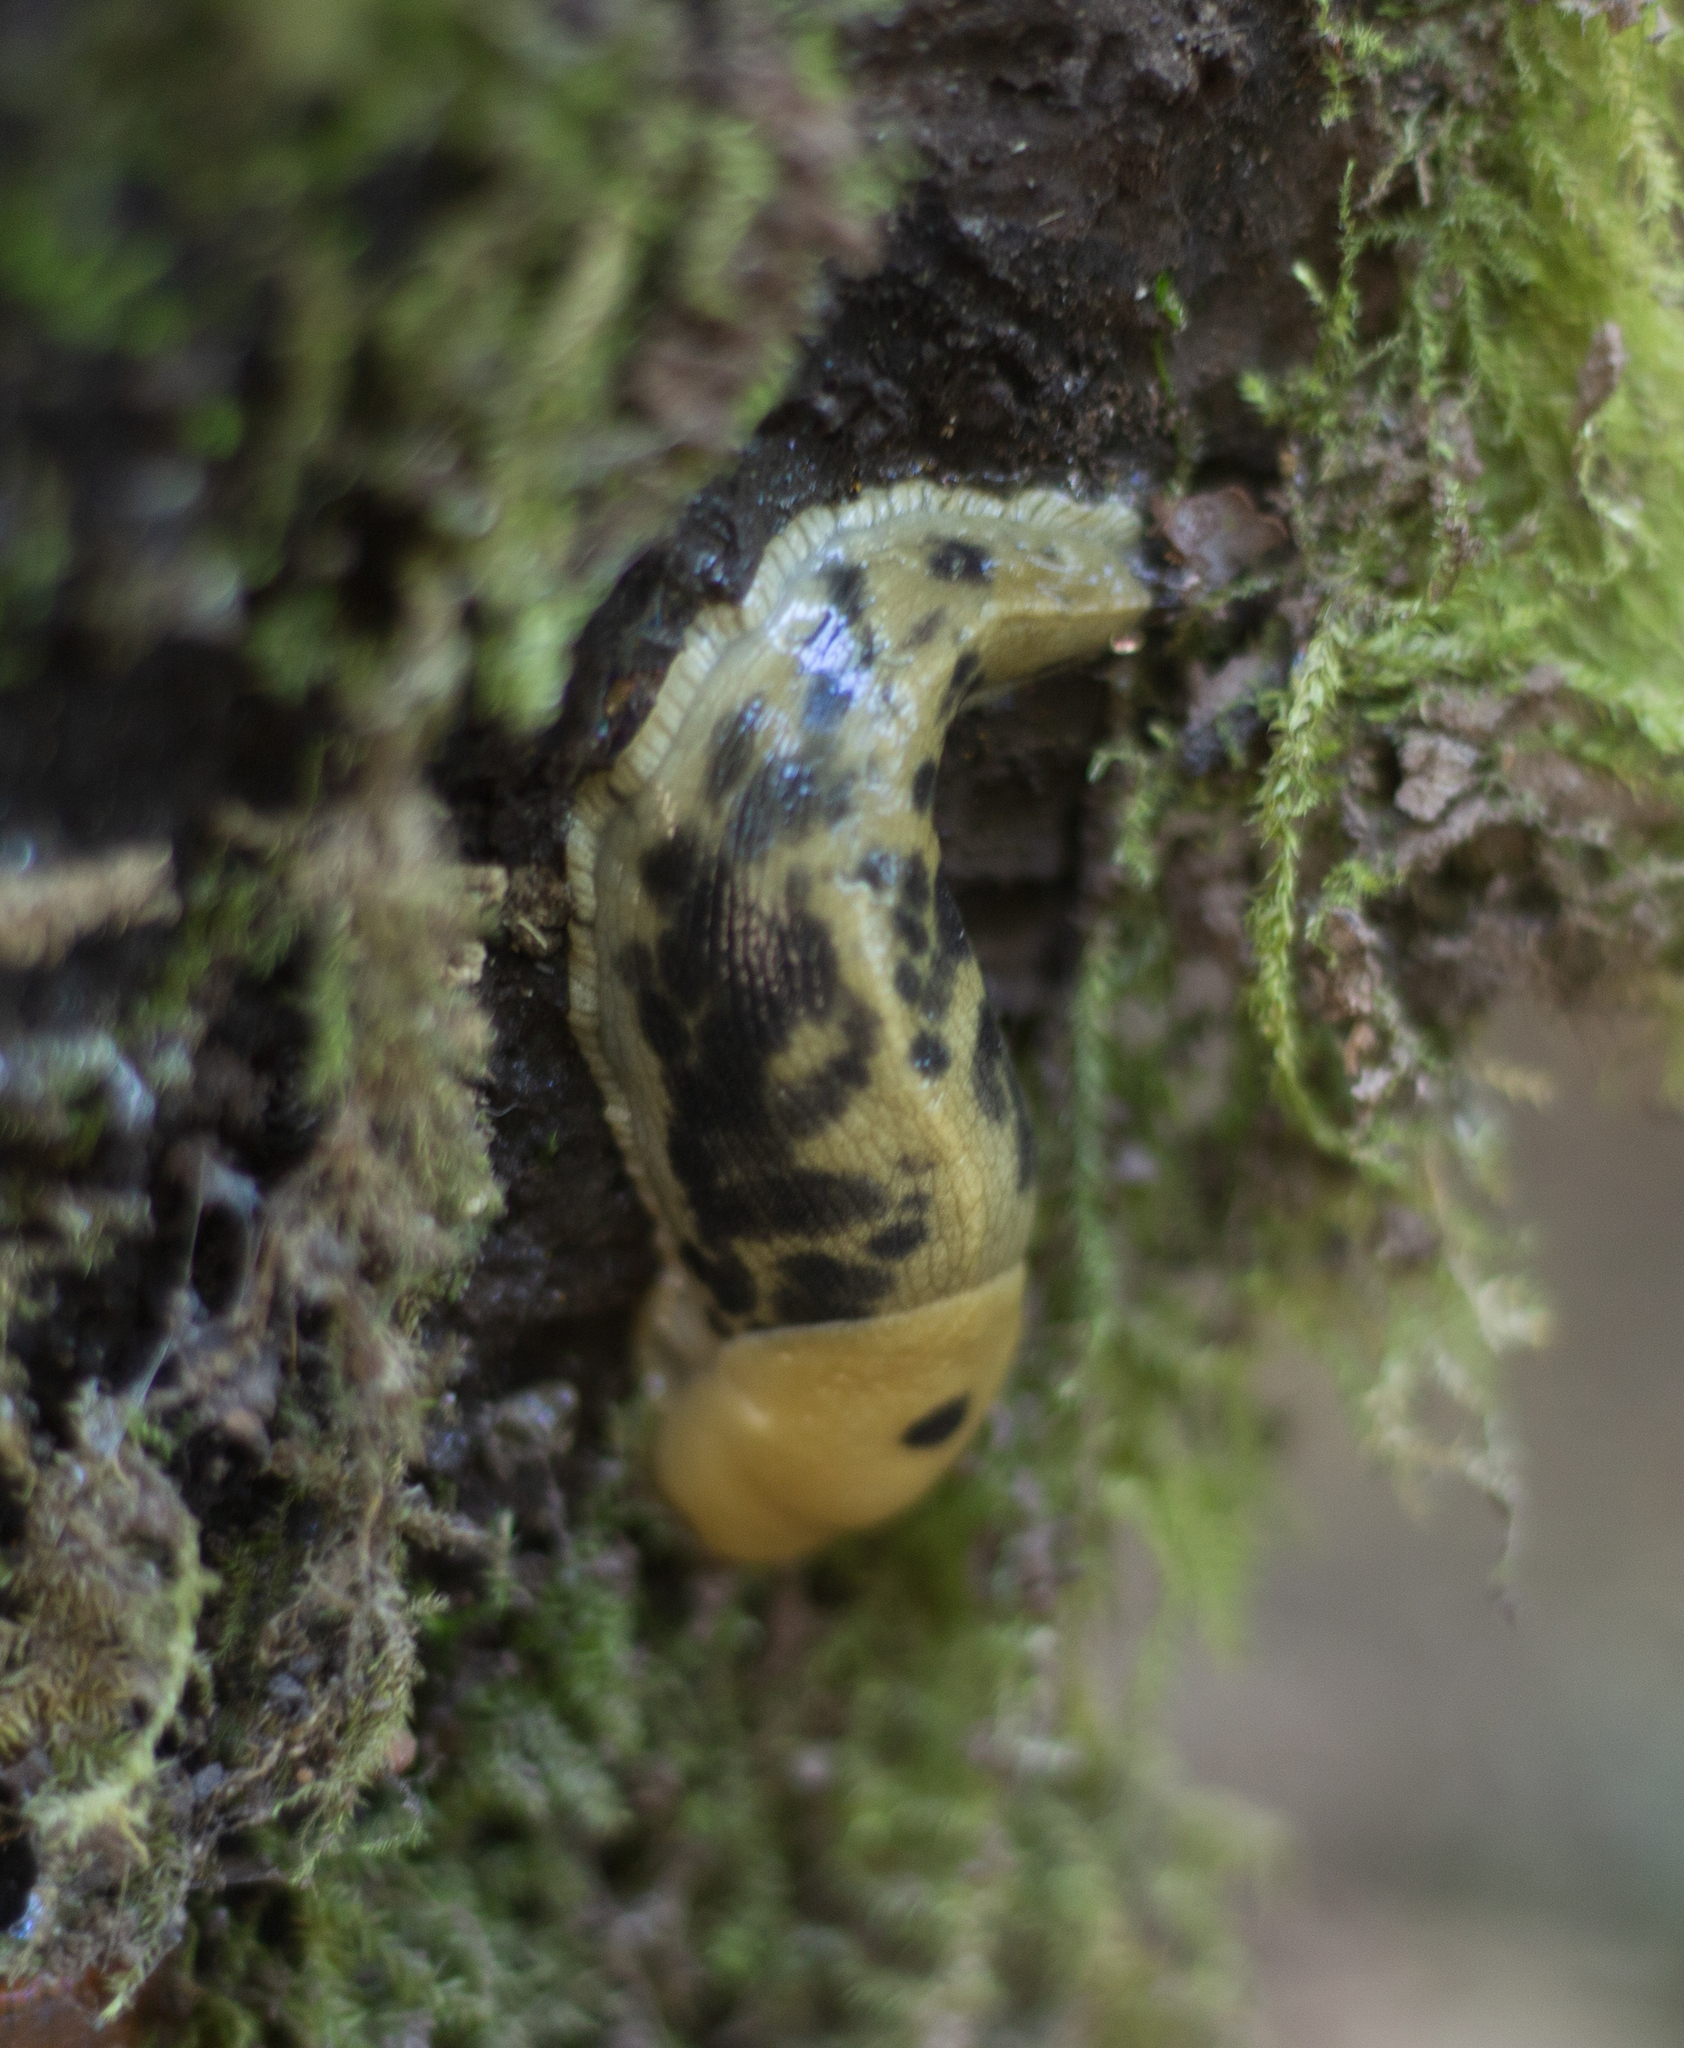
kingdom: Animalia
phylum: Mollusca
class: Gastropoda
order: Stylommatophora
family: Ariolimacidae
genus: Ariolimax
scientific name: Ariolimax columbianus
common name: Pacific banana slug
